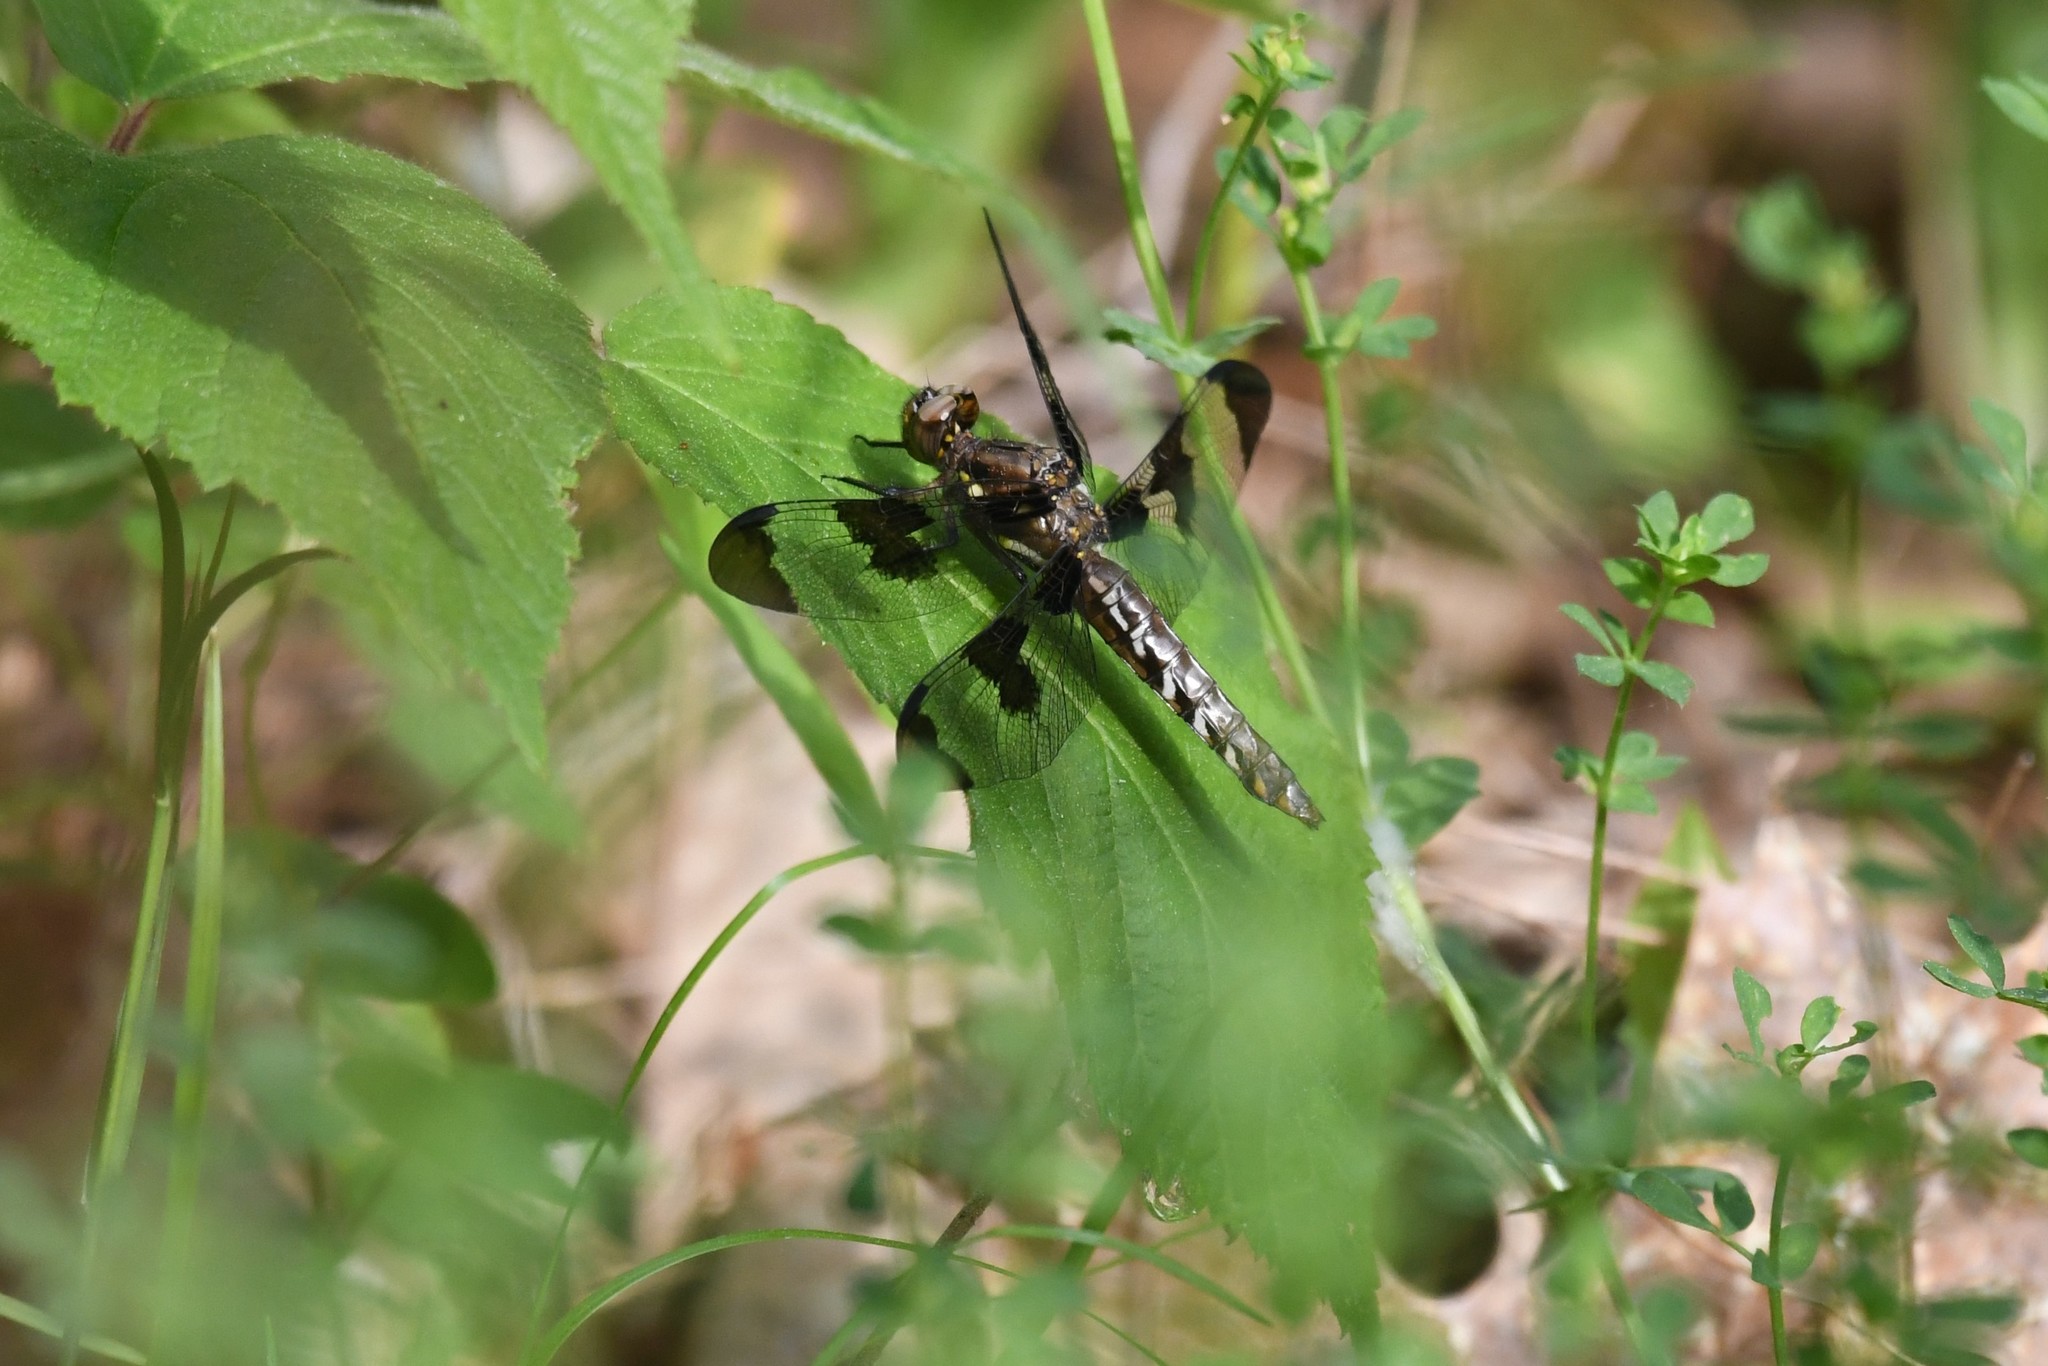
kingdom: Animalia
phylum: Arthropoda
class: Insecta
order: Odonata
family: Libellulidae
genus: Plathemis
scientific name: Plathemis lydia
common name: Common whitetail
